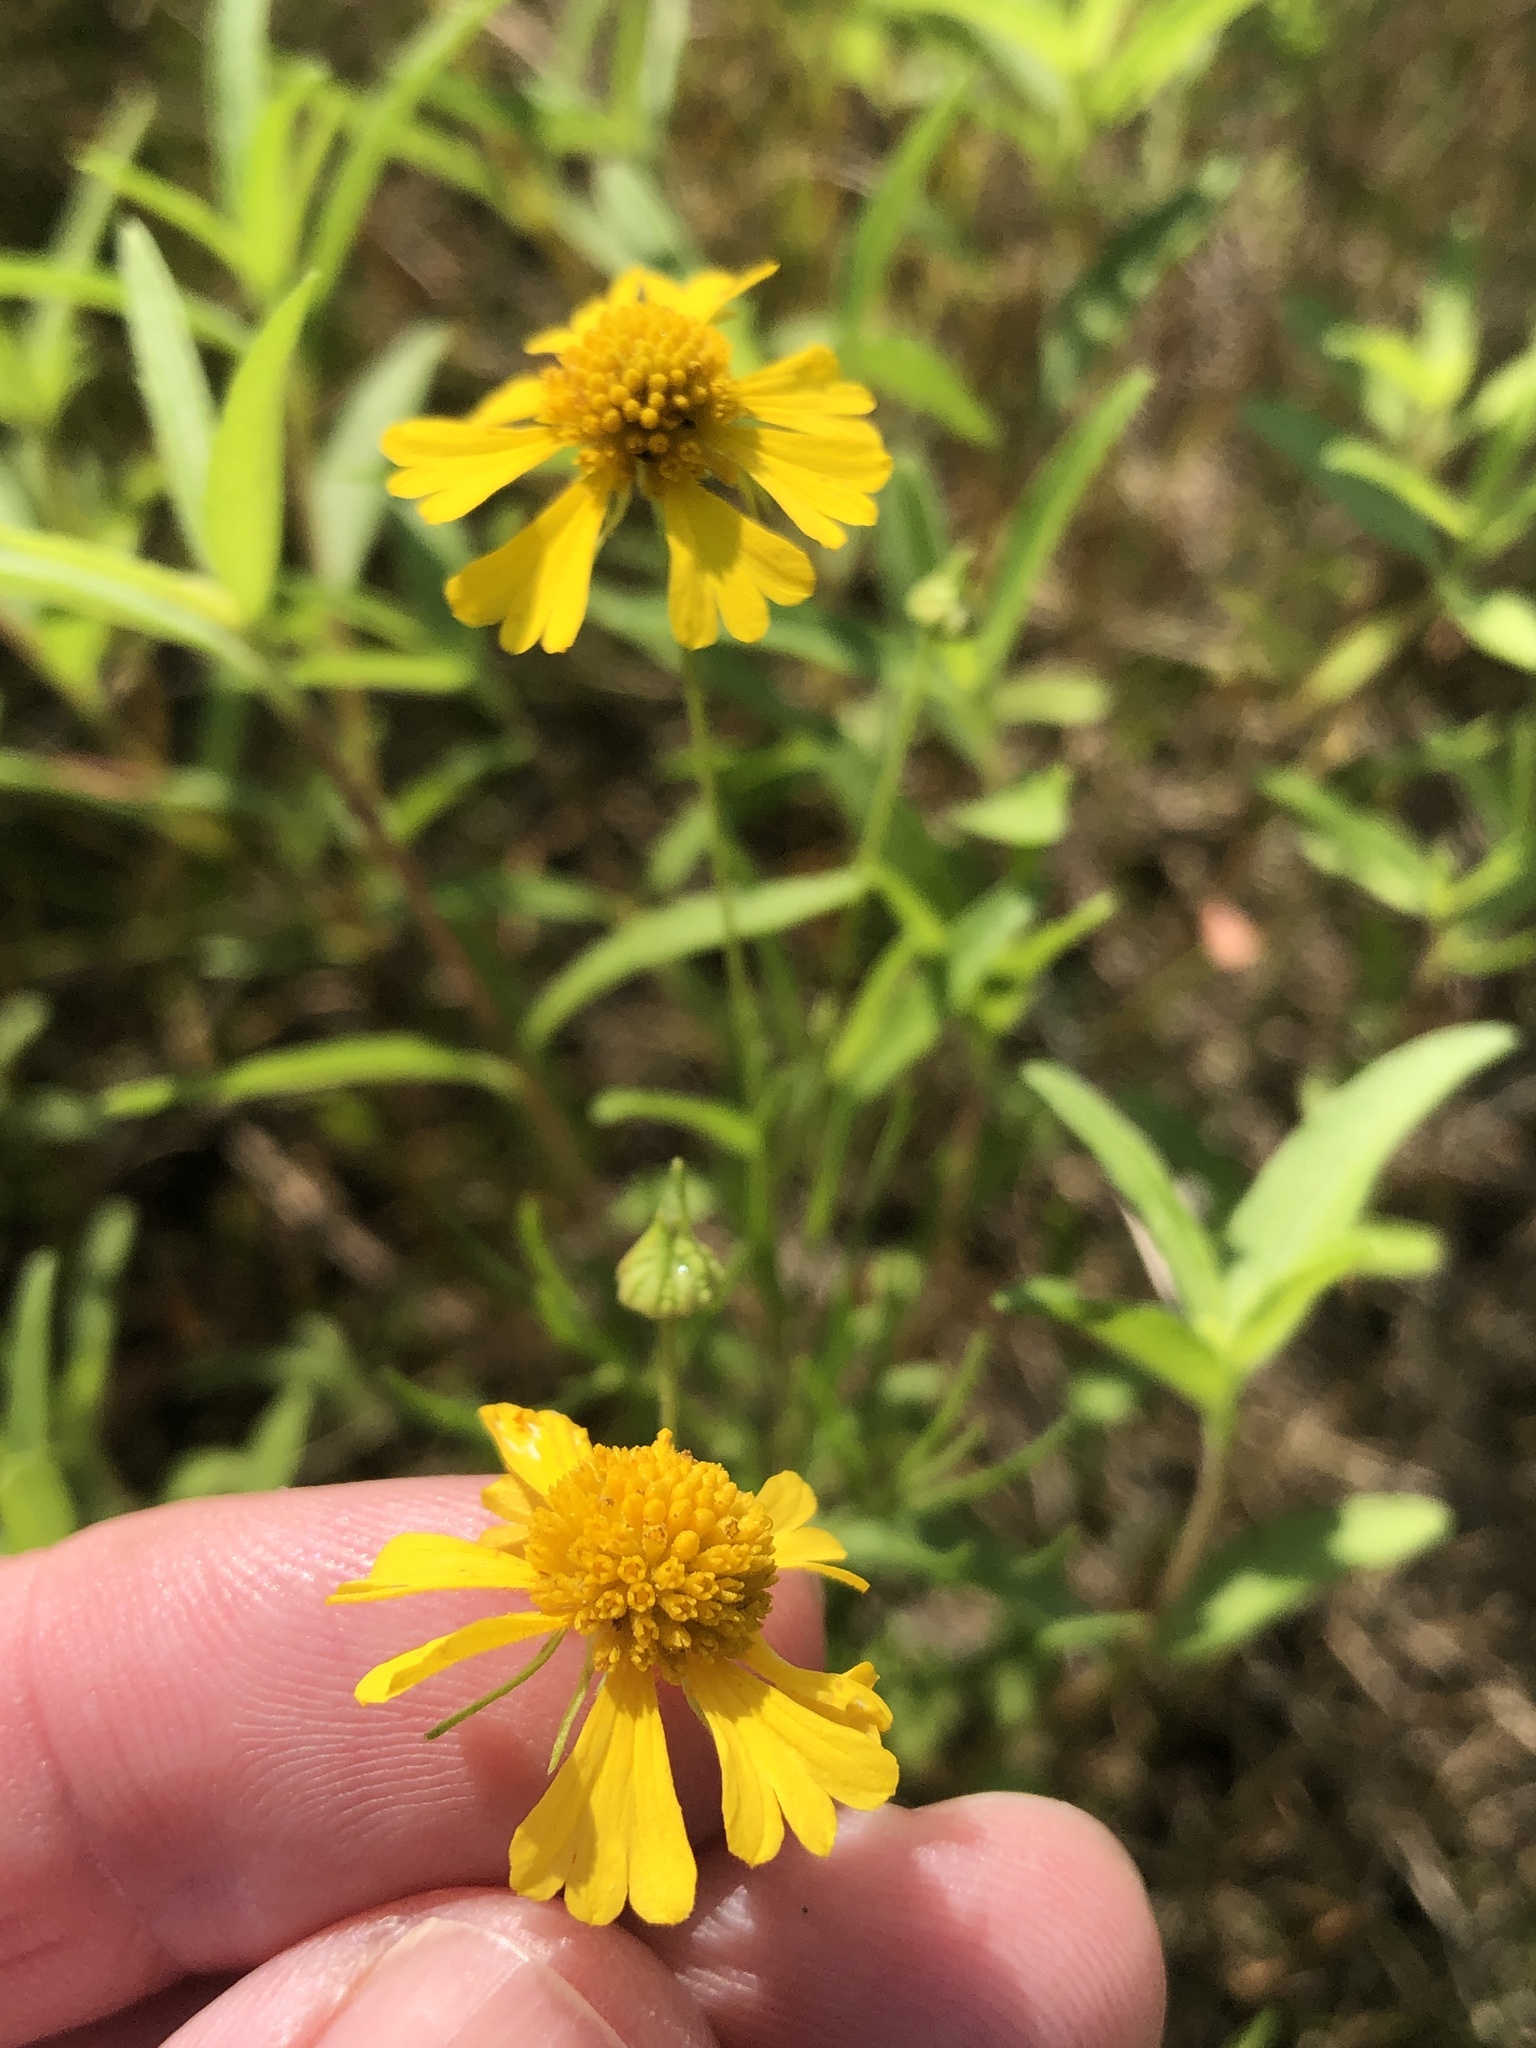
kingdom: Plantae
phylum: Tracheophyta
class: Magnoliopsida
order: Asterales
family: Asteraceae
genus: Helenium
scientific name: Helenium amarum
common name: Bitter sneezeweed
